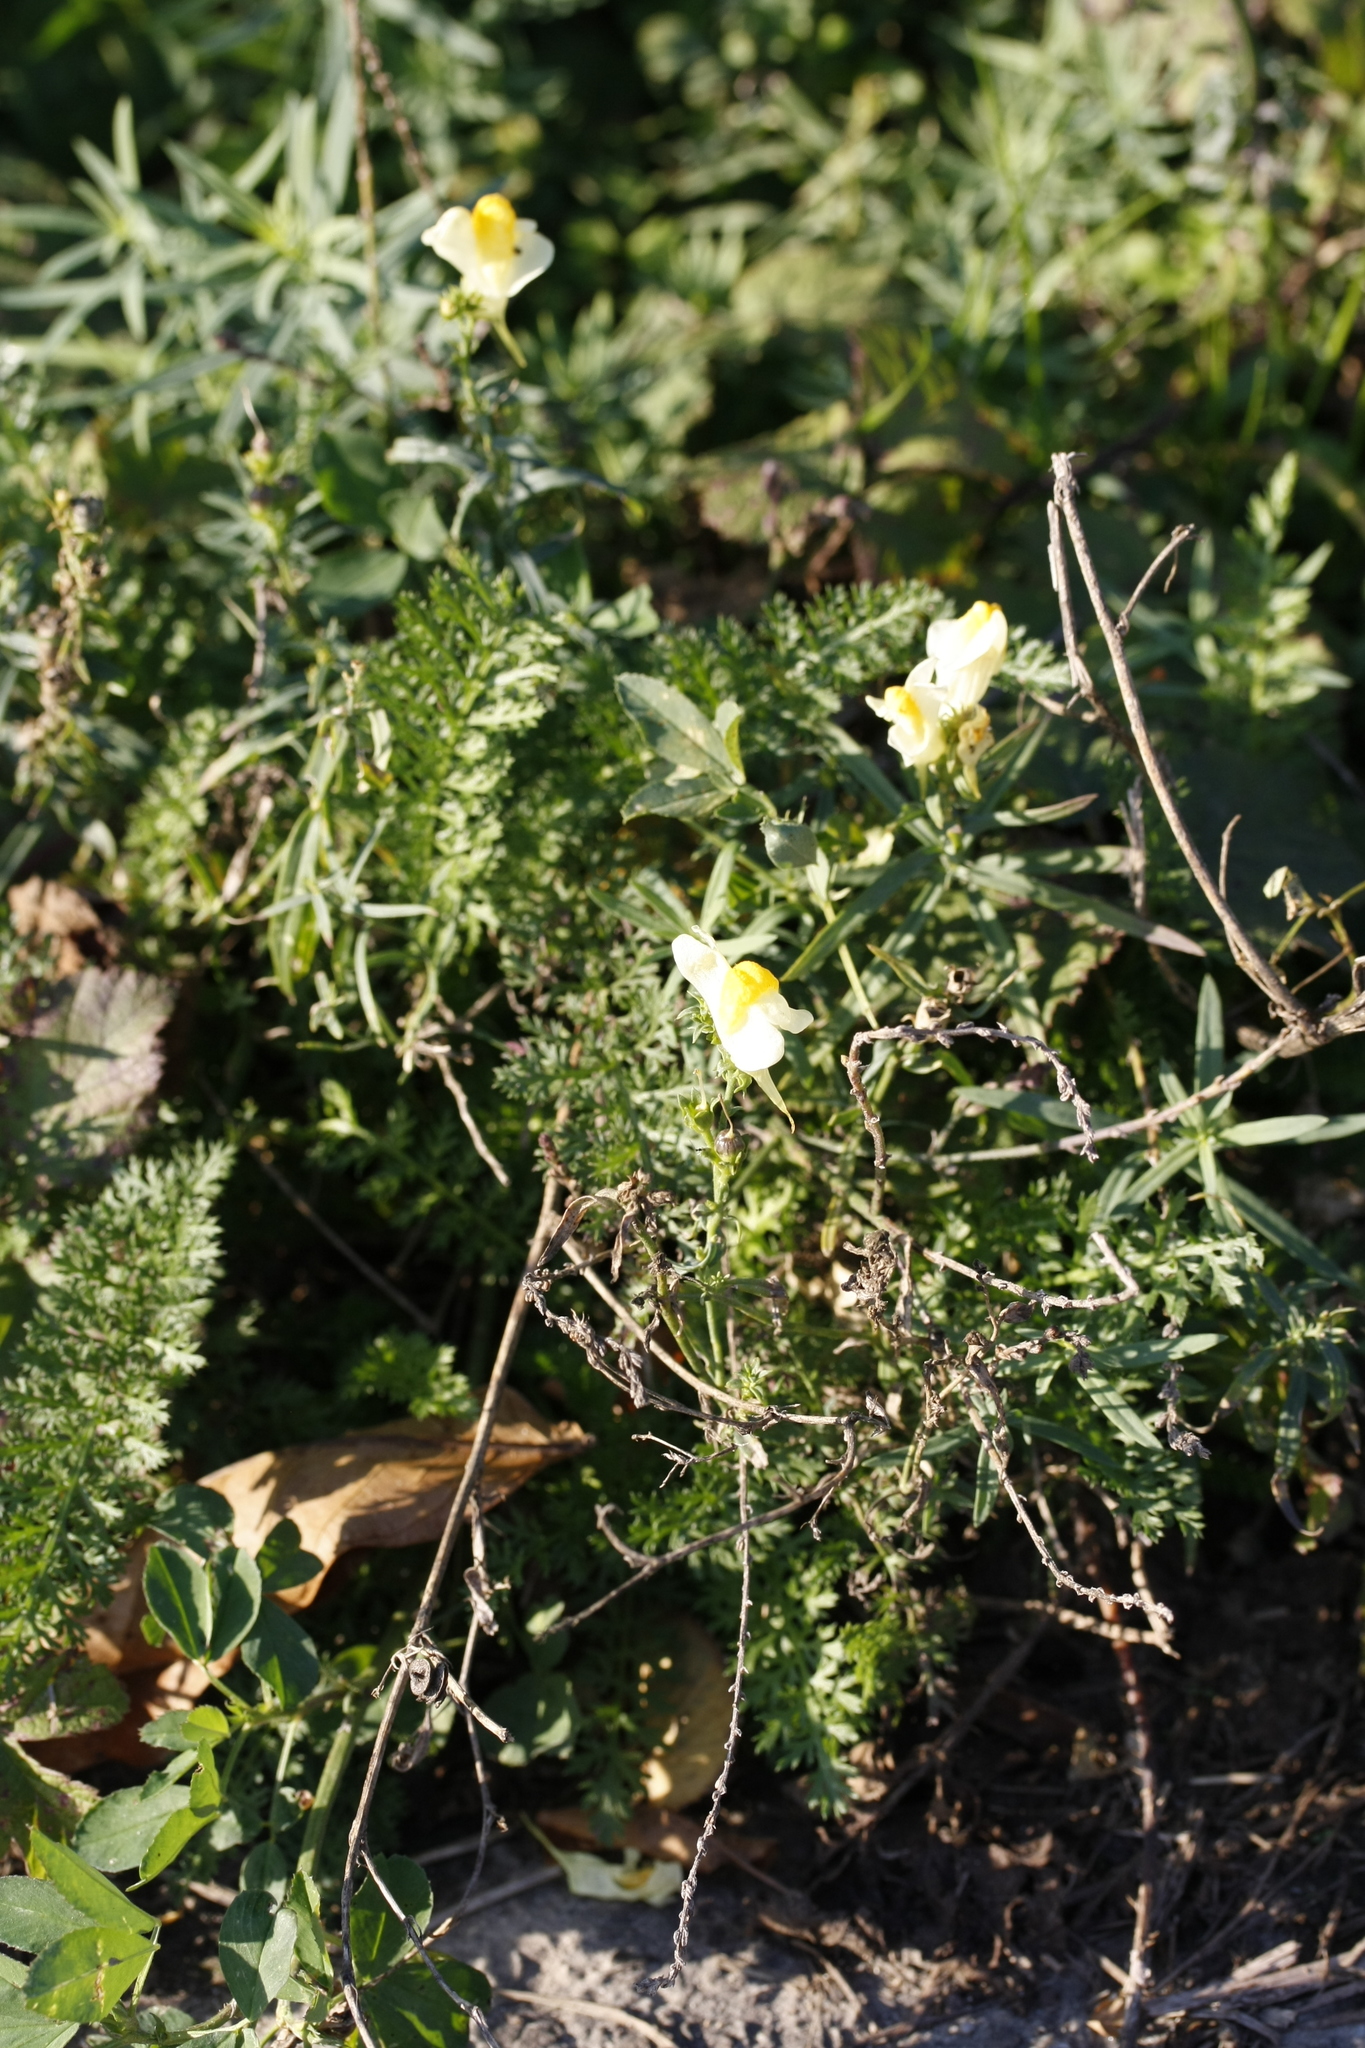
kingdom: Plantae
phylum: Tracheophyta
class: Magnoliopsida
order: Lamiales
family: Plantaginaceae
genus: Linaria
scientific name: Linaria vulgaris
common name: Butter and eggs
